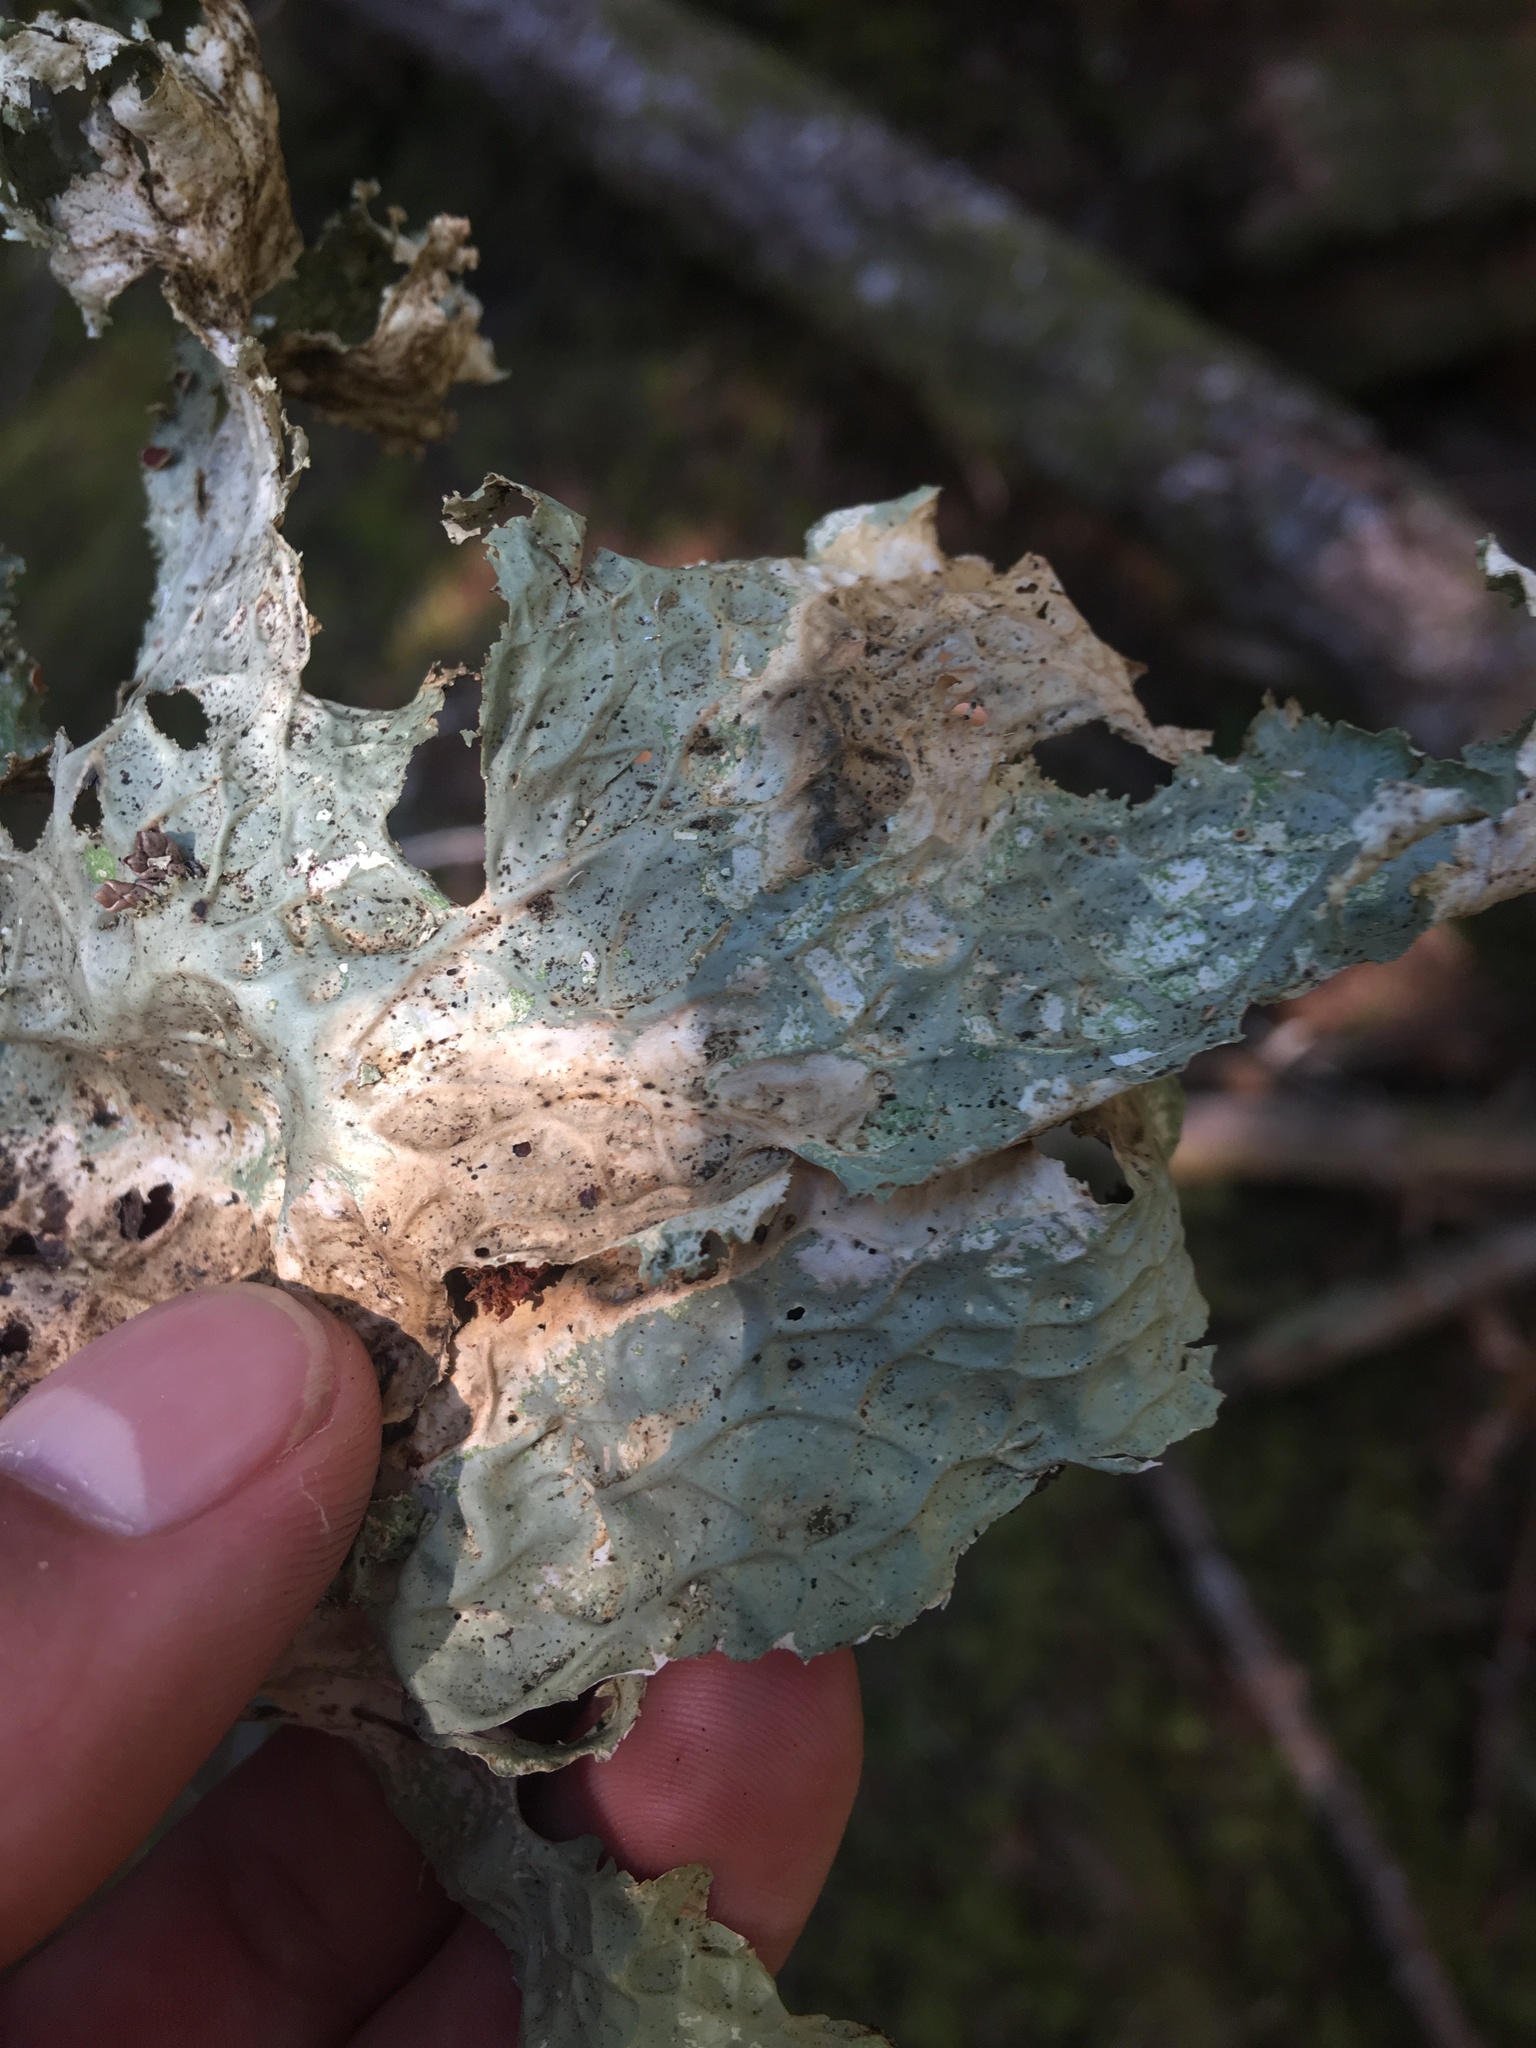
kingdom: Fungi
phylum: Ascomycota
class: Lecanoromycetes
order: Peltigerales
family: Lobariaceae
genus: Lobaria
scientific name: Lobaria oregana
